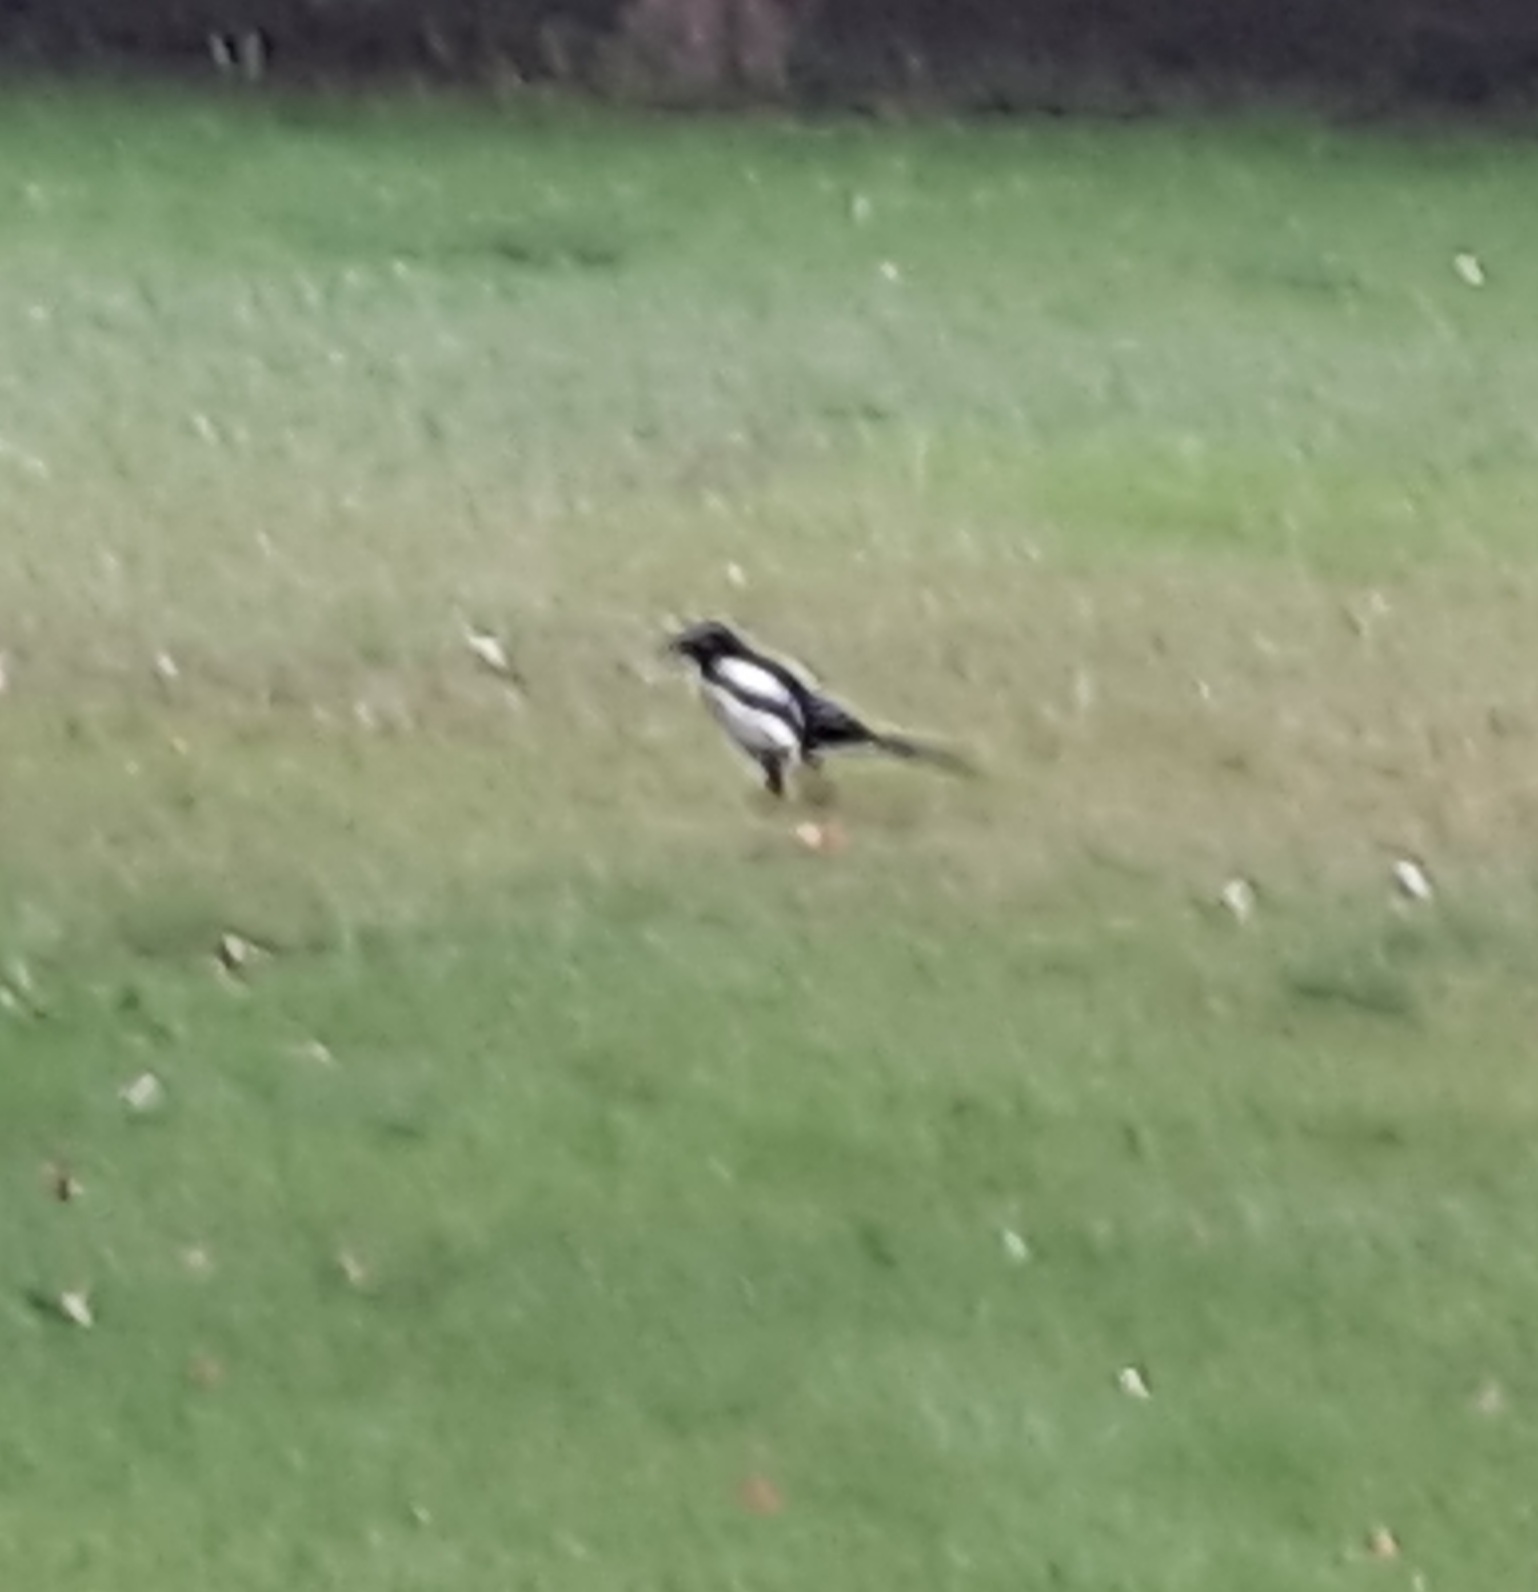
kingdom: Animalia
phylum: Chordata
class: Aves
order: Passeriformes
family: Corvidae
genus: Pica
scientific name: Pica pica
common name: Eurasian magpie
